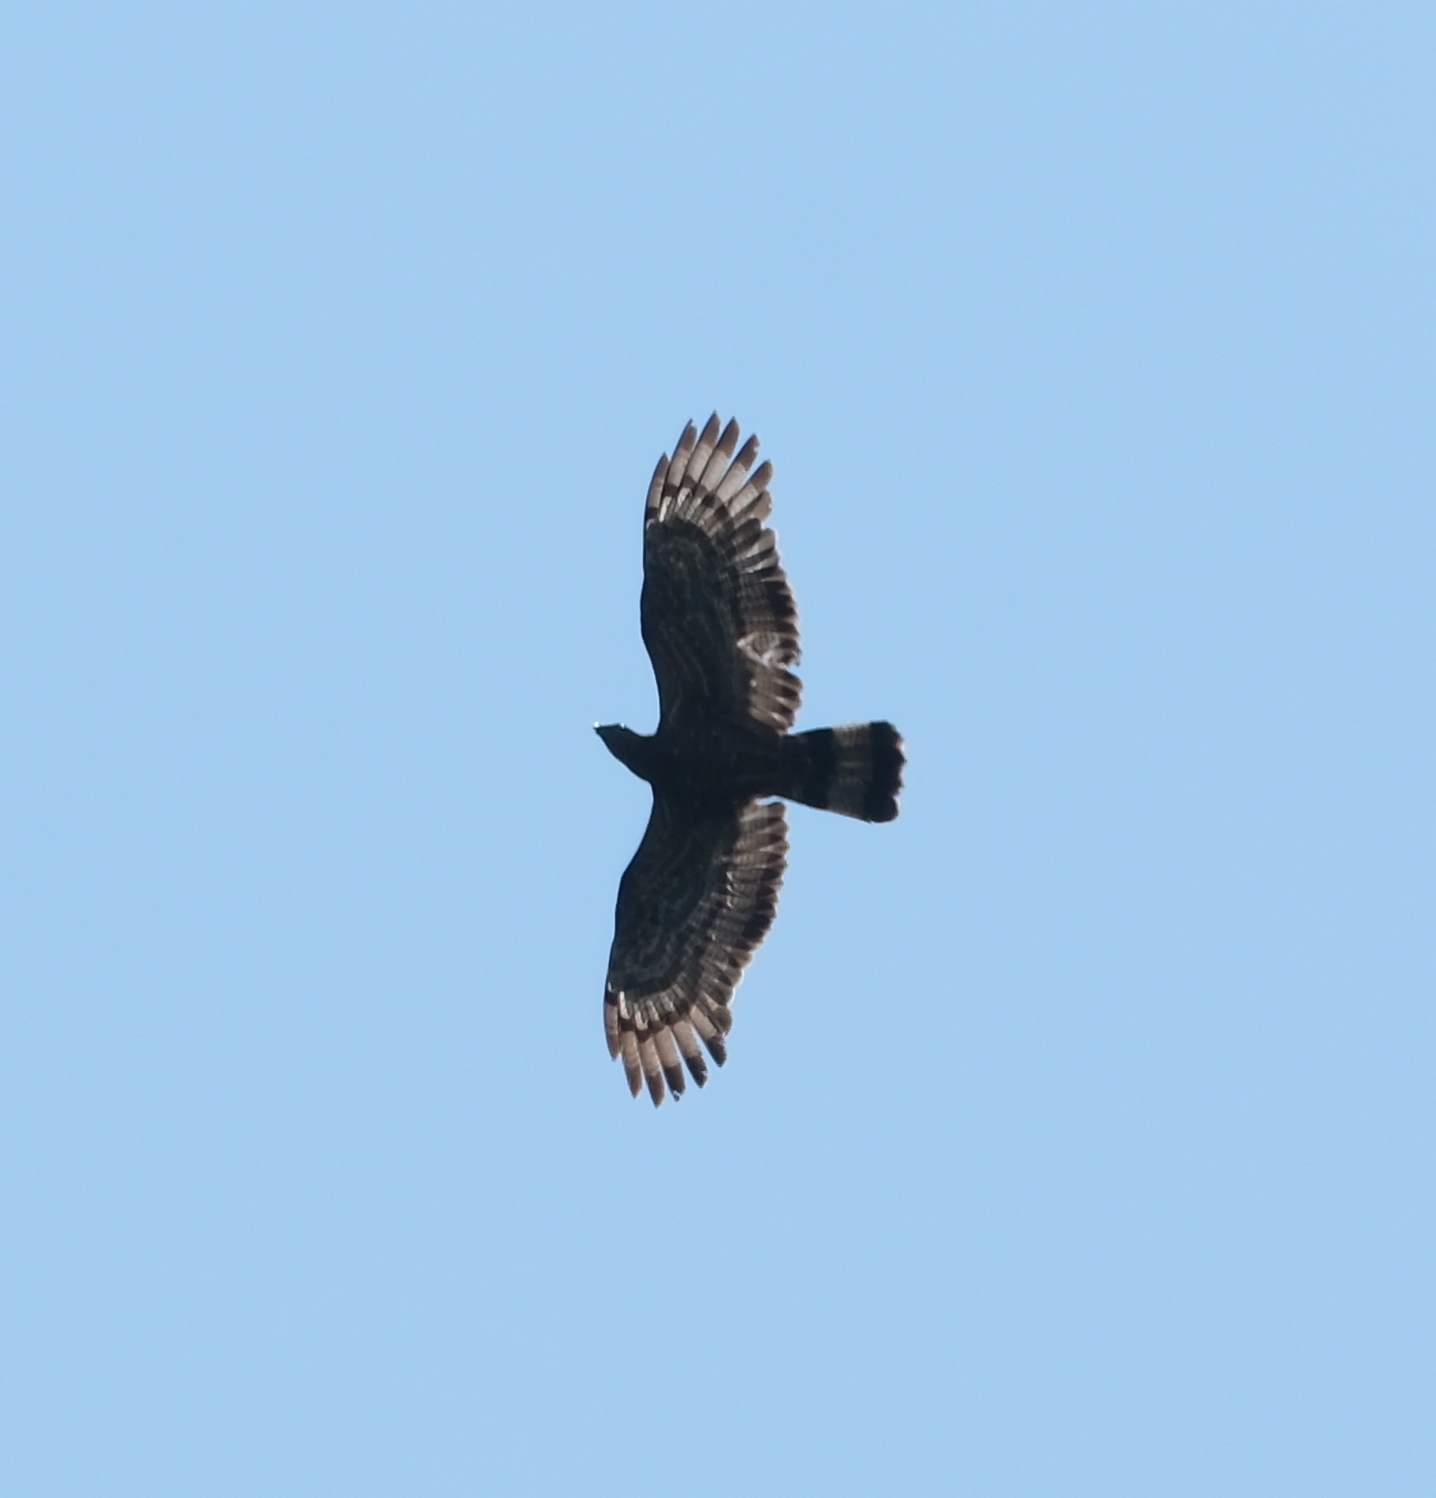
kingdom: Animalia
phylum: Chordata
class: Aves
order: Accipitriformes
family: Accipitridae
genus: Spilornis
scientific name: Spilornis cheela
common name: Crested serpent eagle
